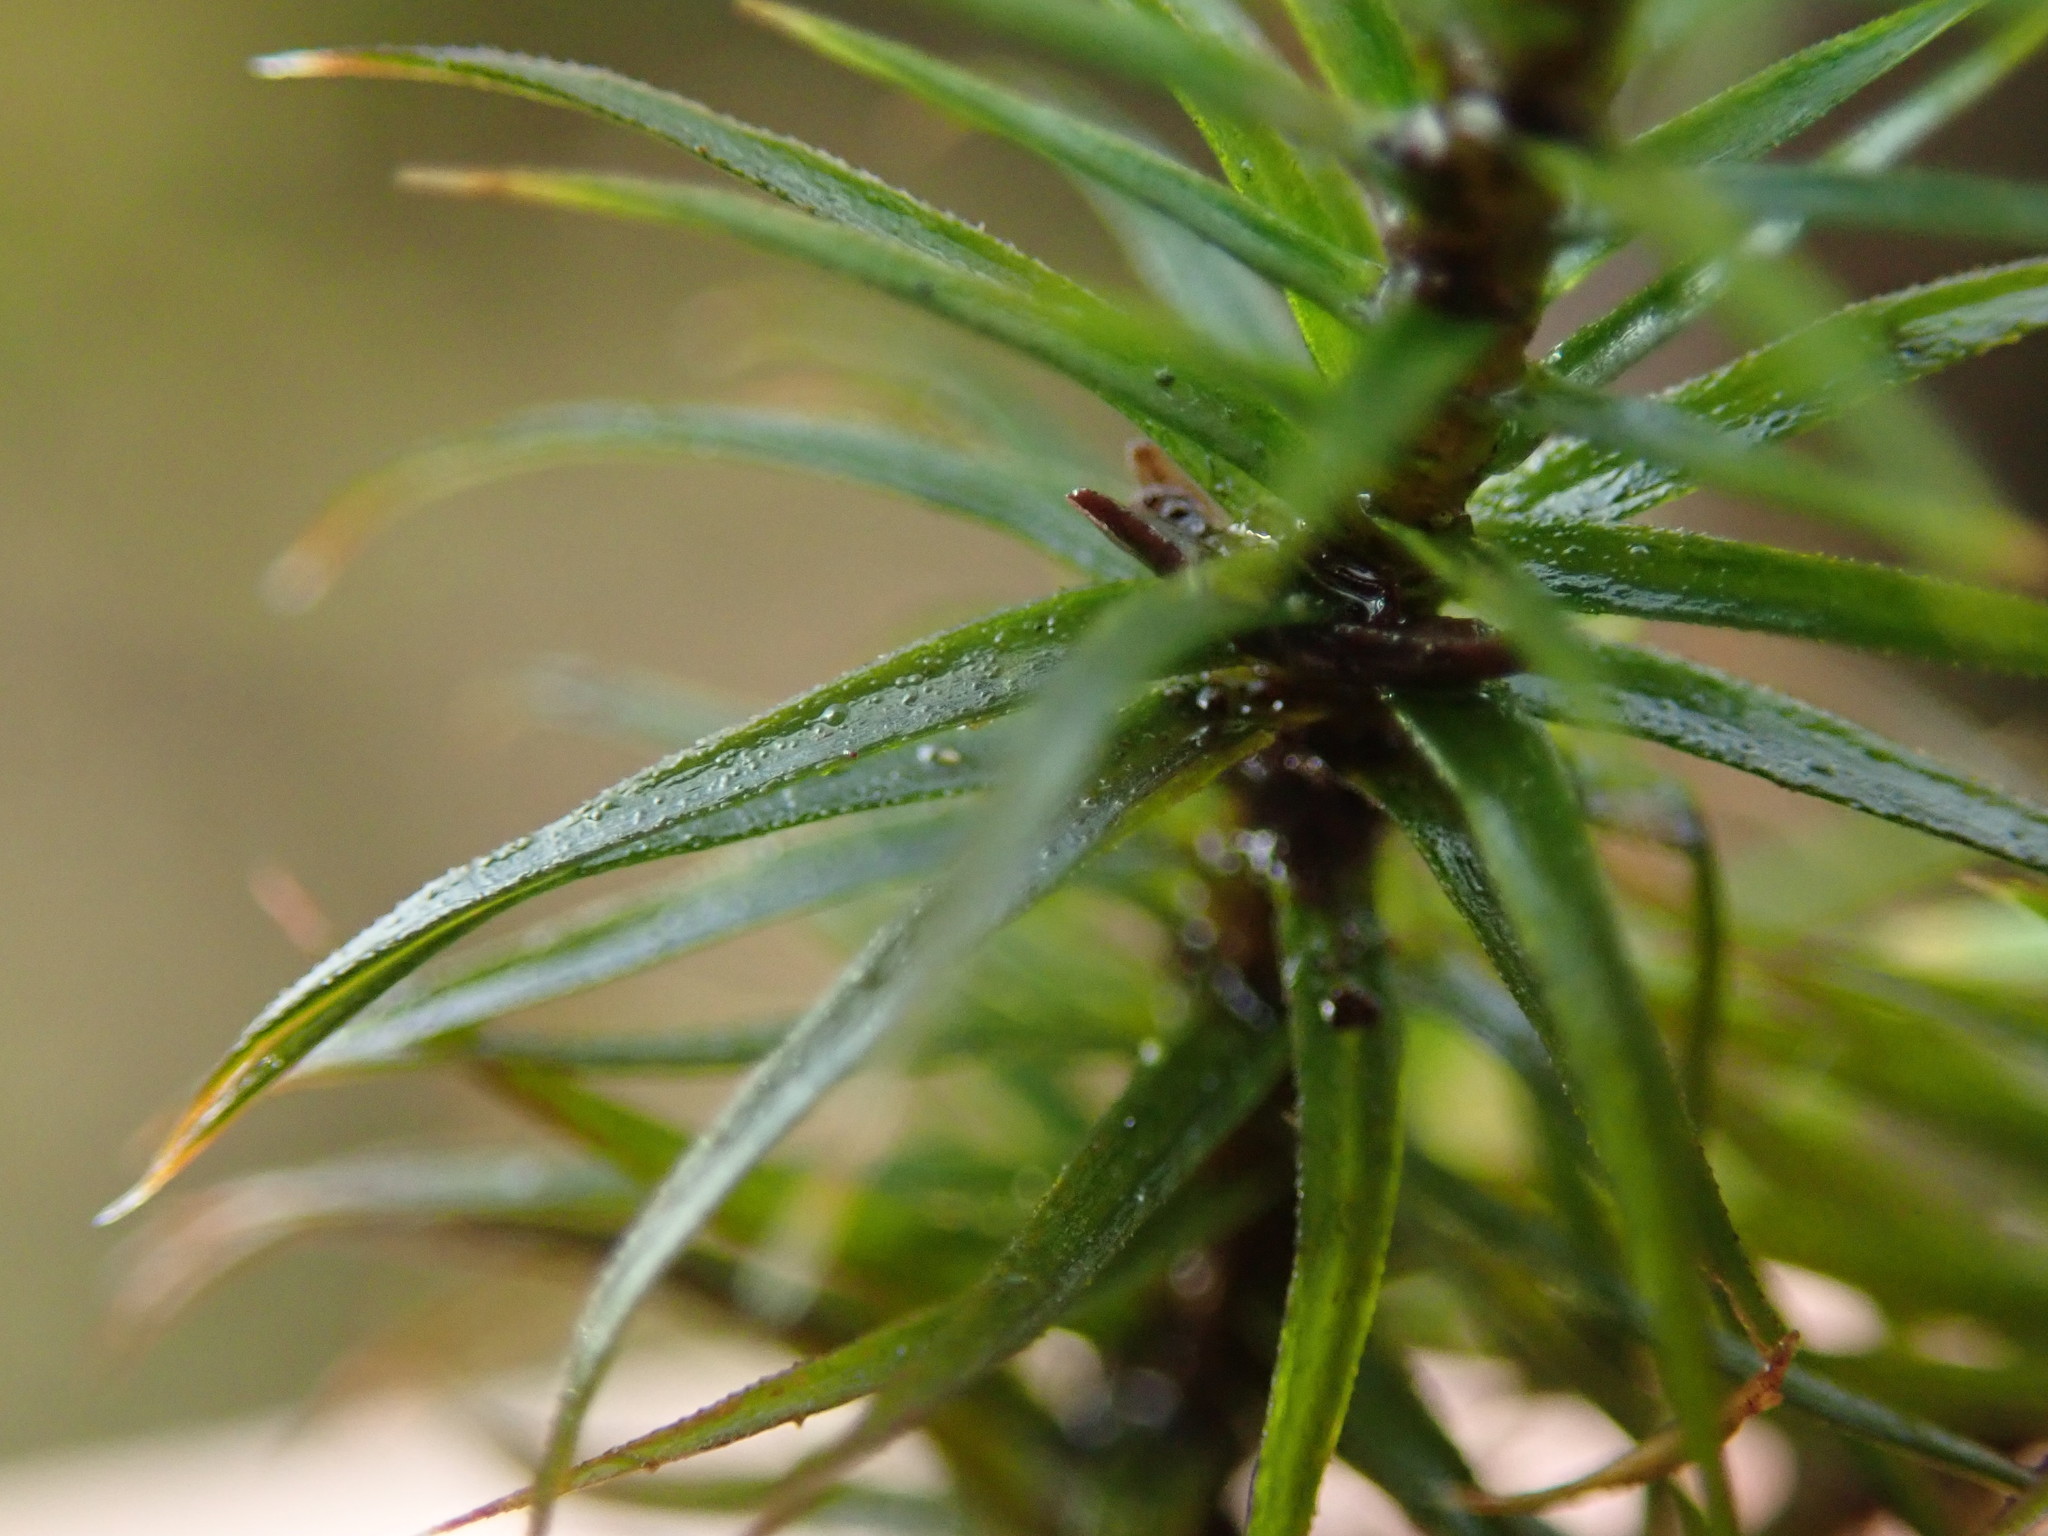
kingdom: Plantae
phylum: Bryophyta
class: Polytrichopsida
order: Polytrichales
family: Polytrichaceae
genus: Polytrichum
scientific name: Polytrichum commune
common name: Common haircap
